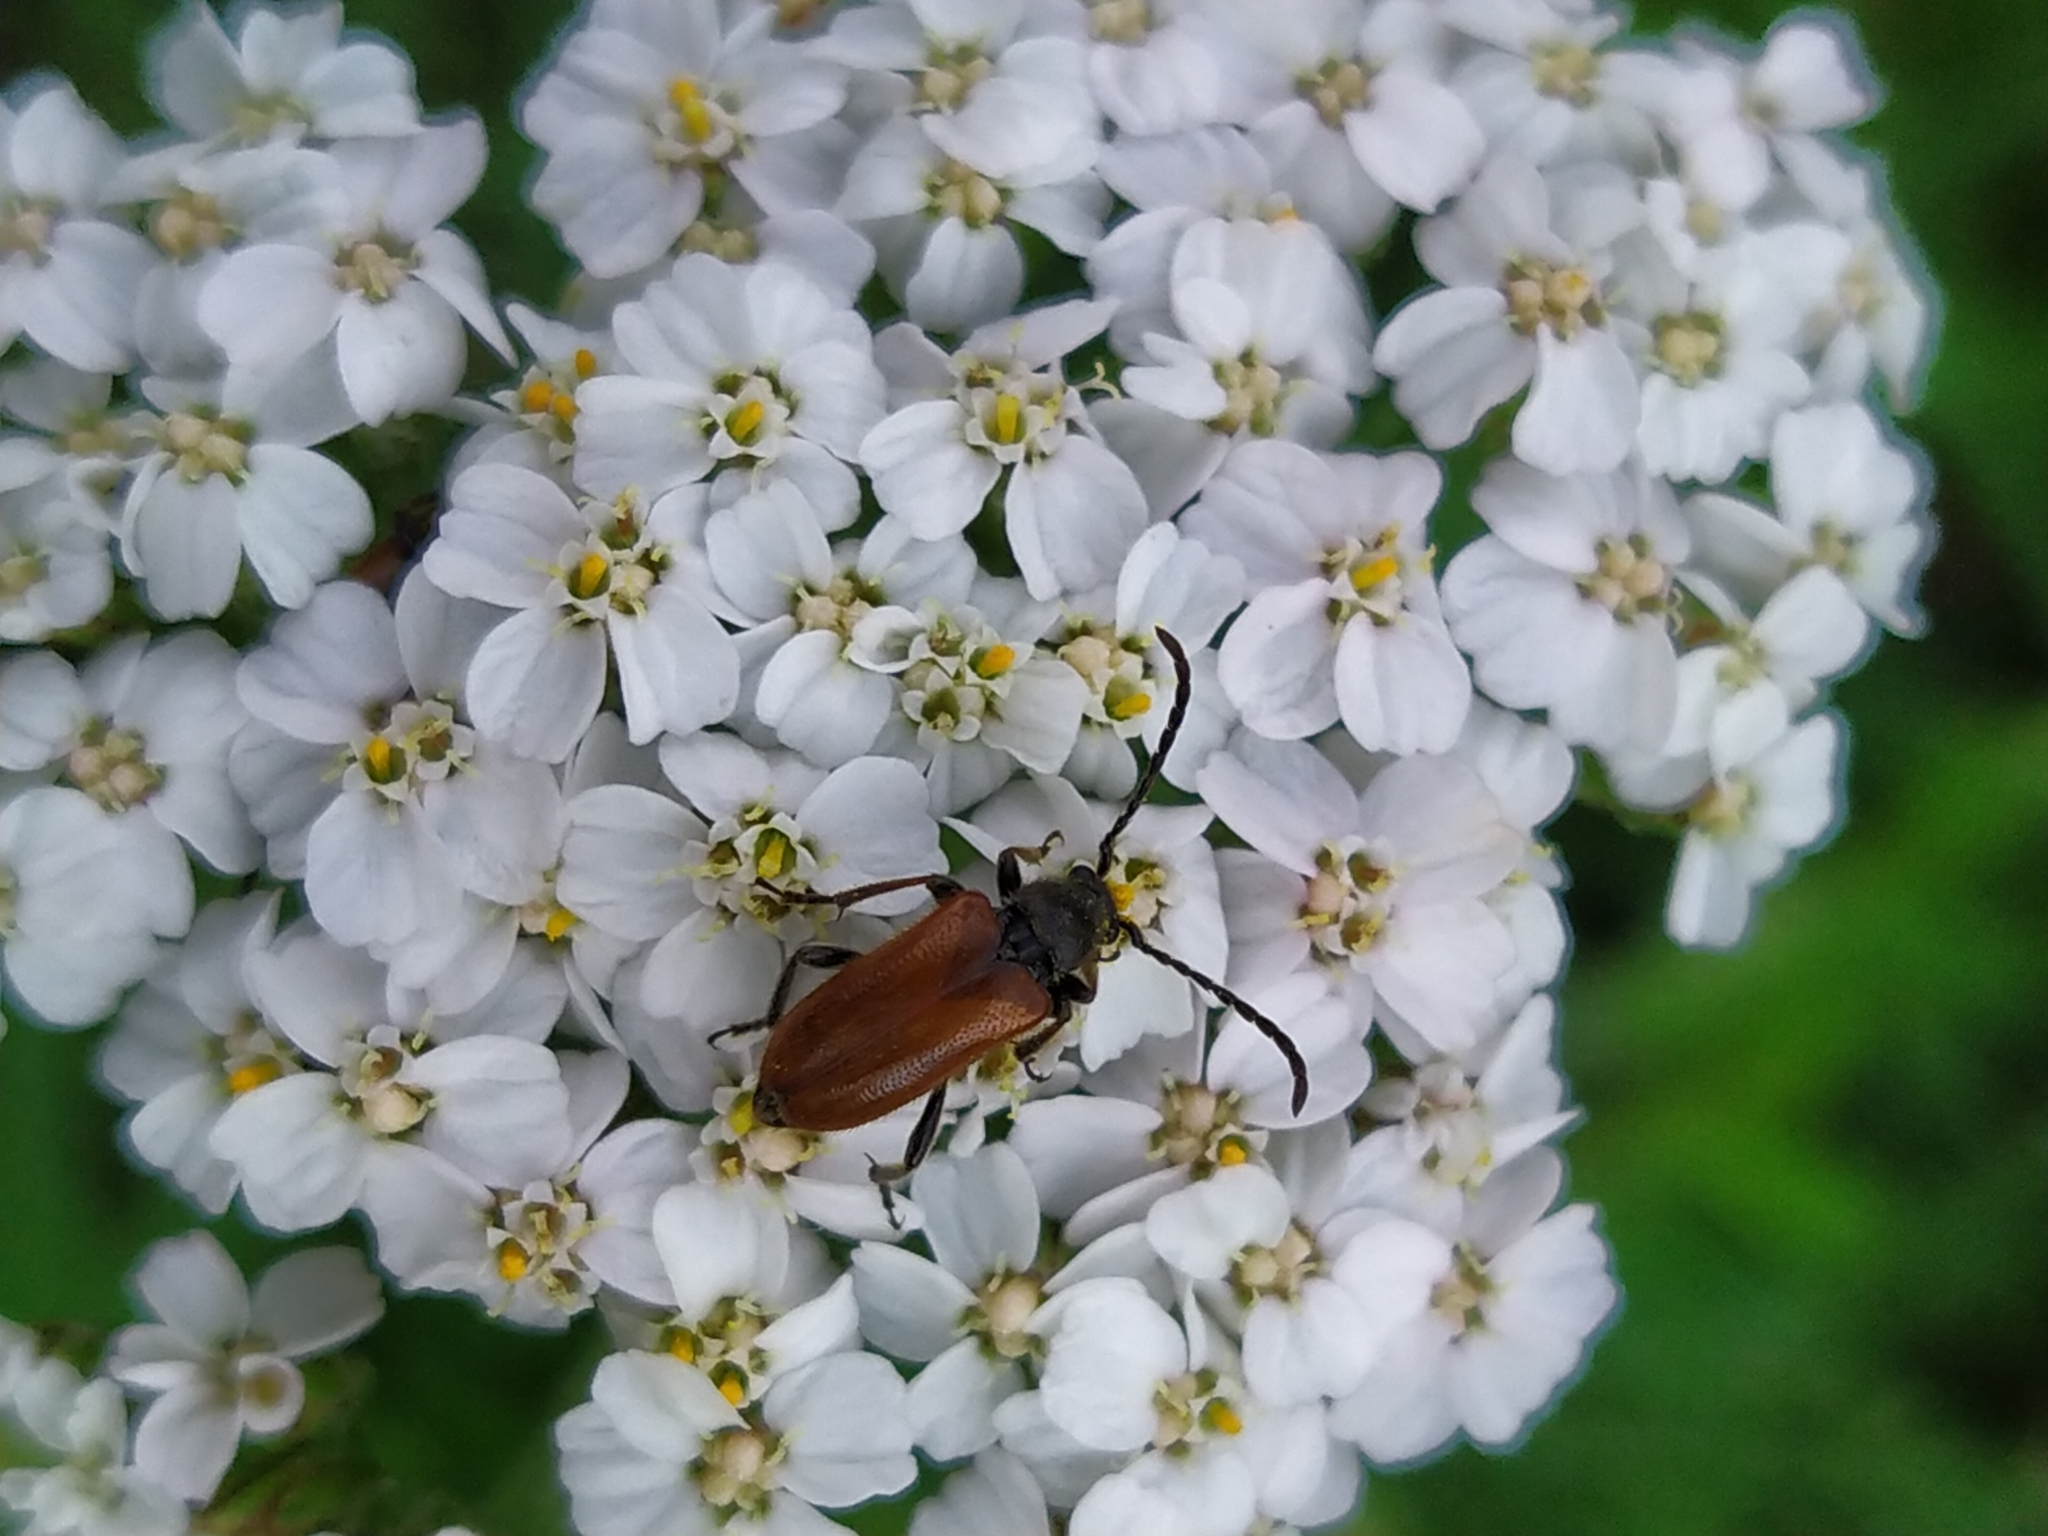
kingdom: Animalia
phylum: Arthropoda
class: Insecta
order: Coleoptera
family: Cerambycidae
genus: Pseudovadonia
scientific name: Pseudovadonia livida
